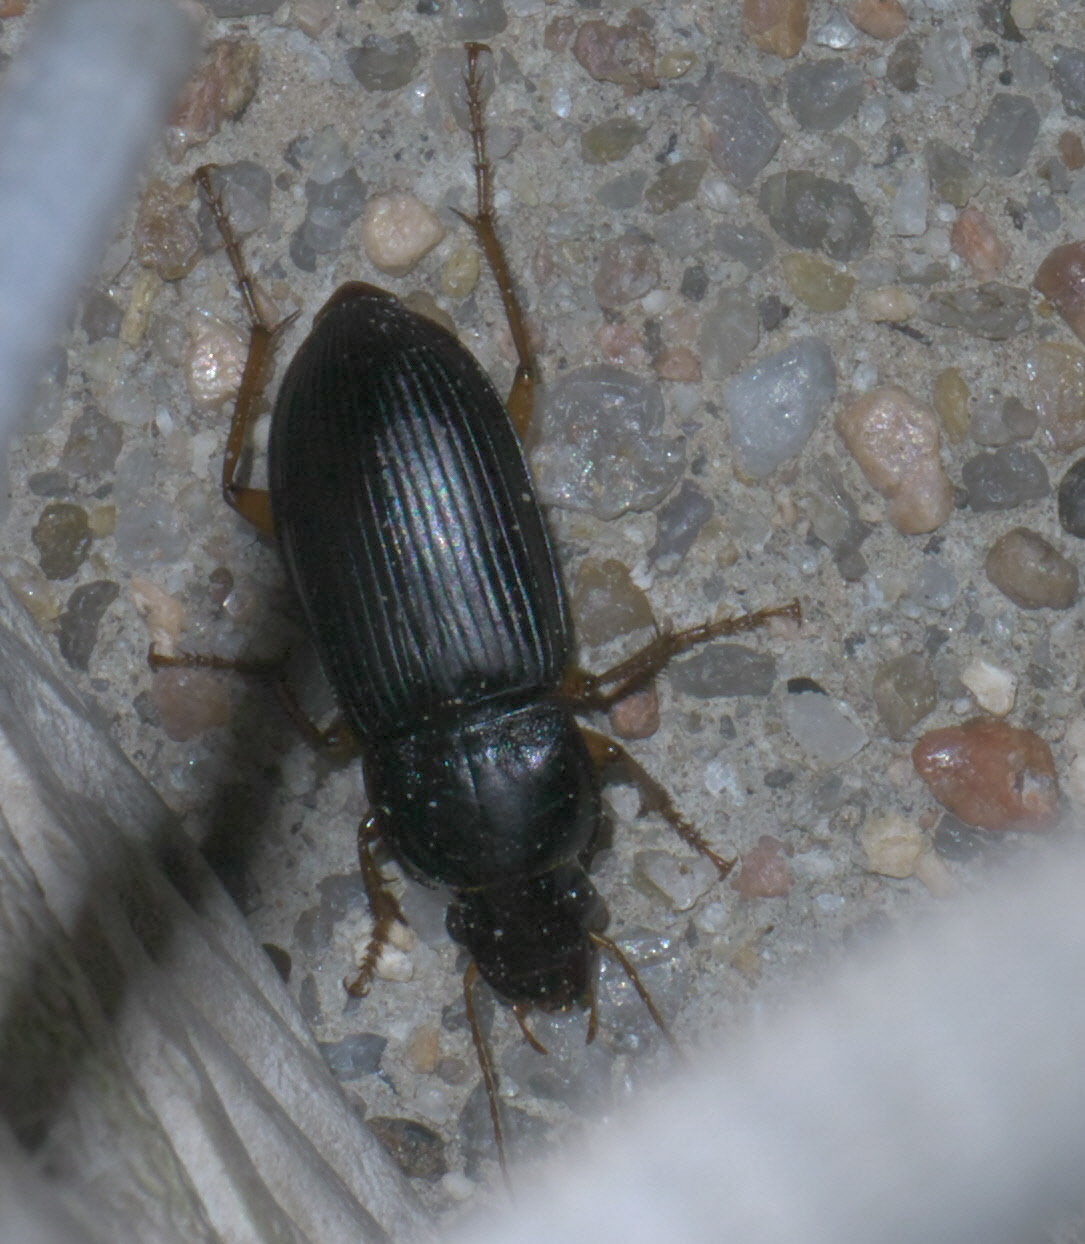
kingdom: Animalia
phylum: Arthropoda
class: Insecta
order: Coleoptera
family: Carabidae
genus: Harpalus
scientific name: Harpalus pensylvanicus
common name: Pennsylvania dingy ground beetle
